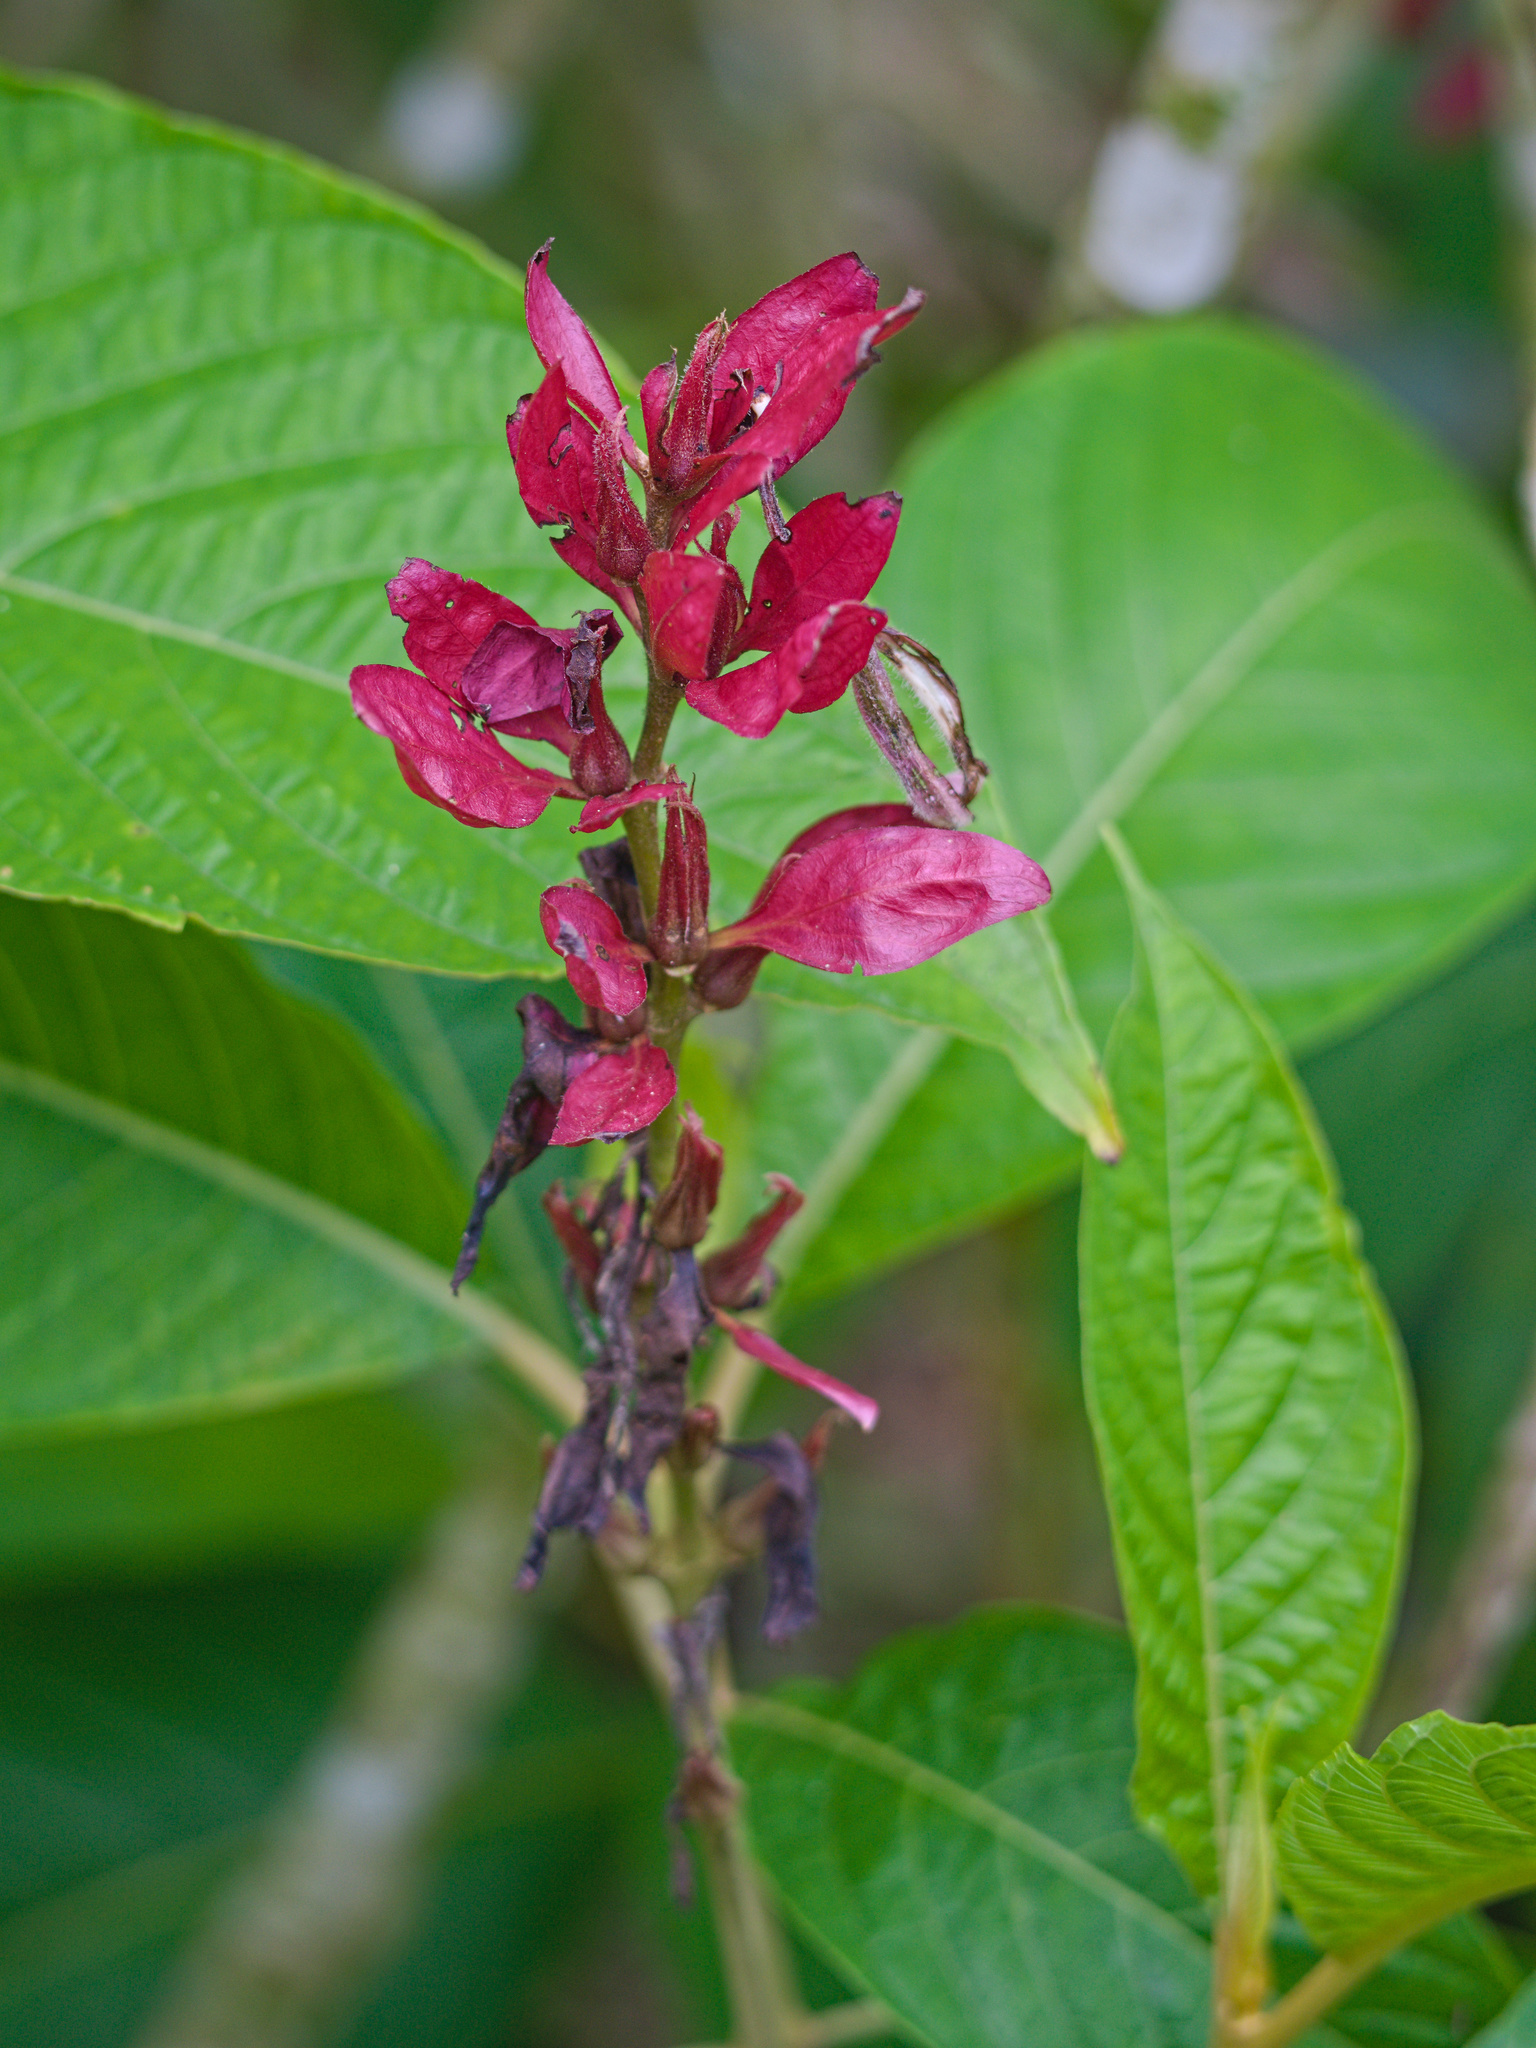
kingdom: Plantae
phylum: Tracheophyta
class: Magnoliopsida
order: Lamiales
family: Acanthaceae
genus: Megaskepasma
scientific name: Megaskepasma erythrochlamys
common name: Brazilian red-cloak
